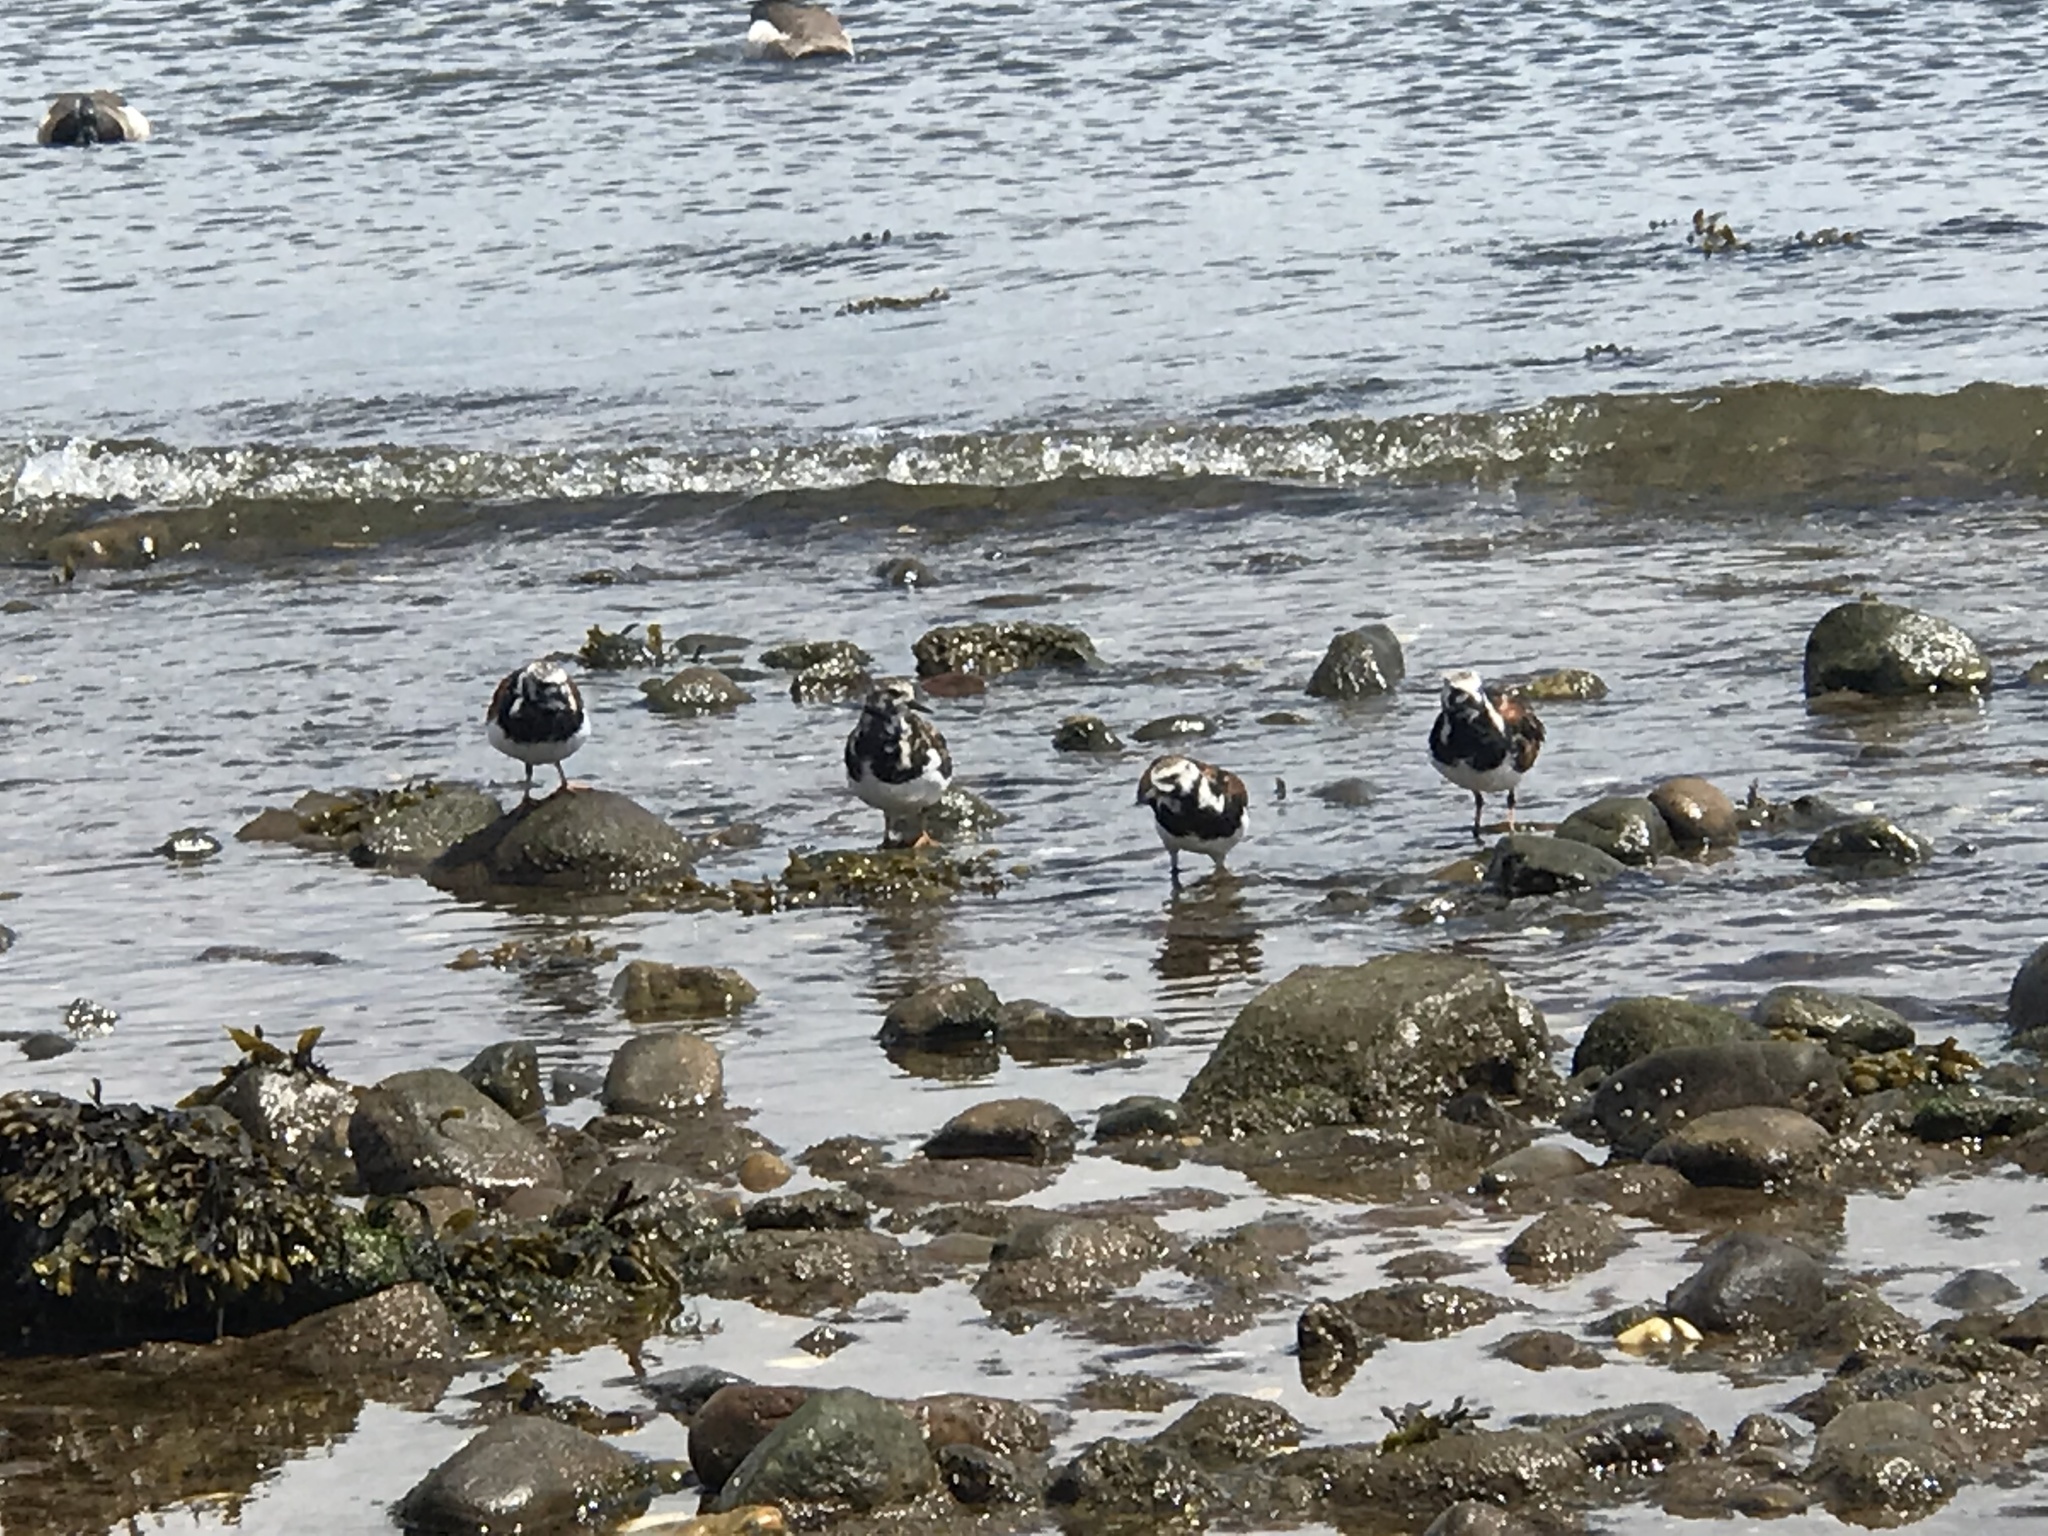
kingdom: Animalia
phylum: Chordata
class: Aves
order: Charadriiformes
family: Scolopacidae
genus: Arenaria
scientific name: Arenaria interpres
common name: Ruddy turnstone
